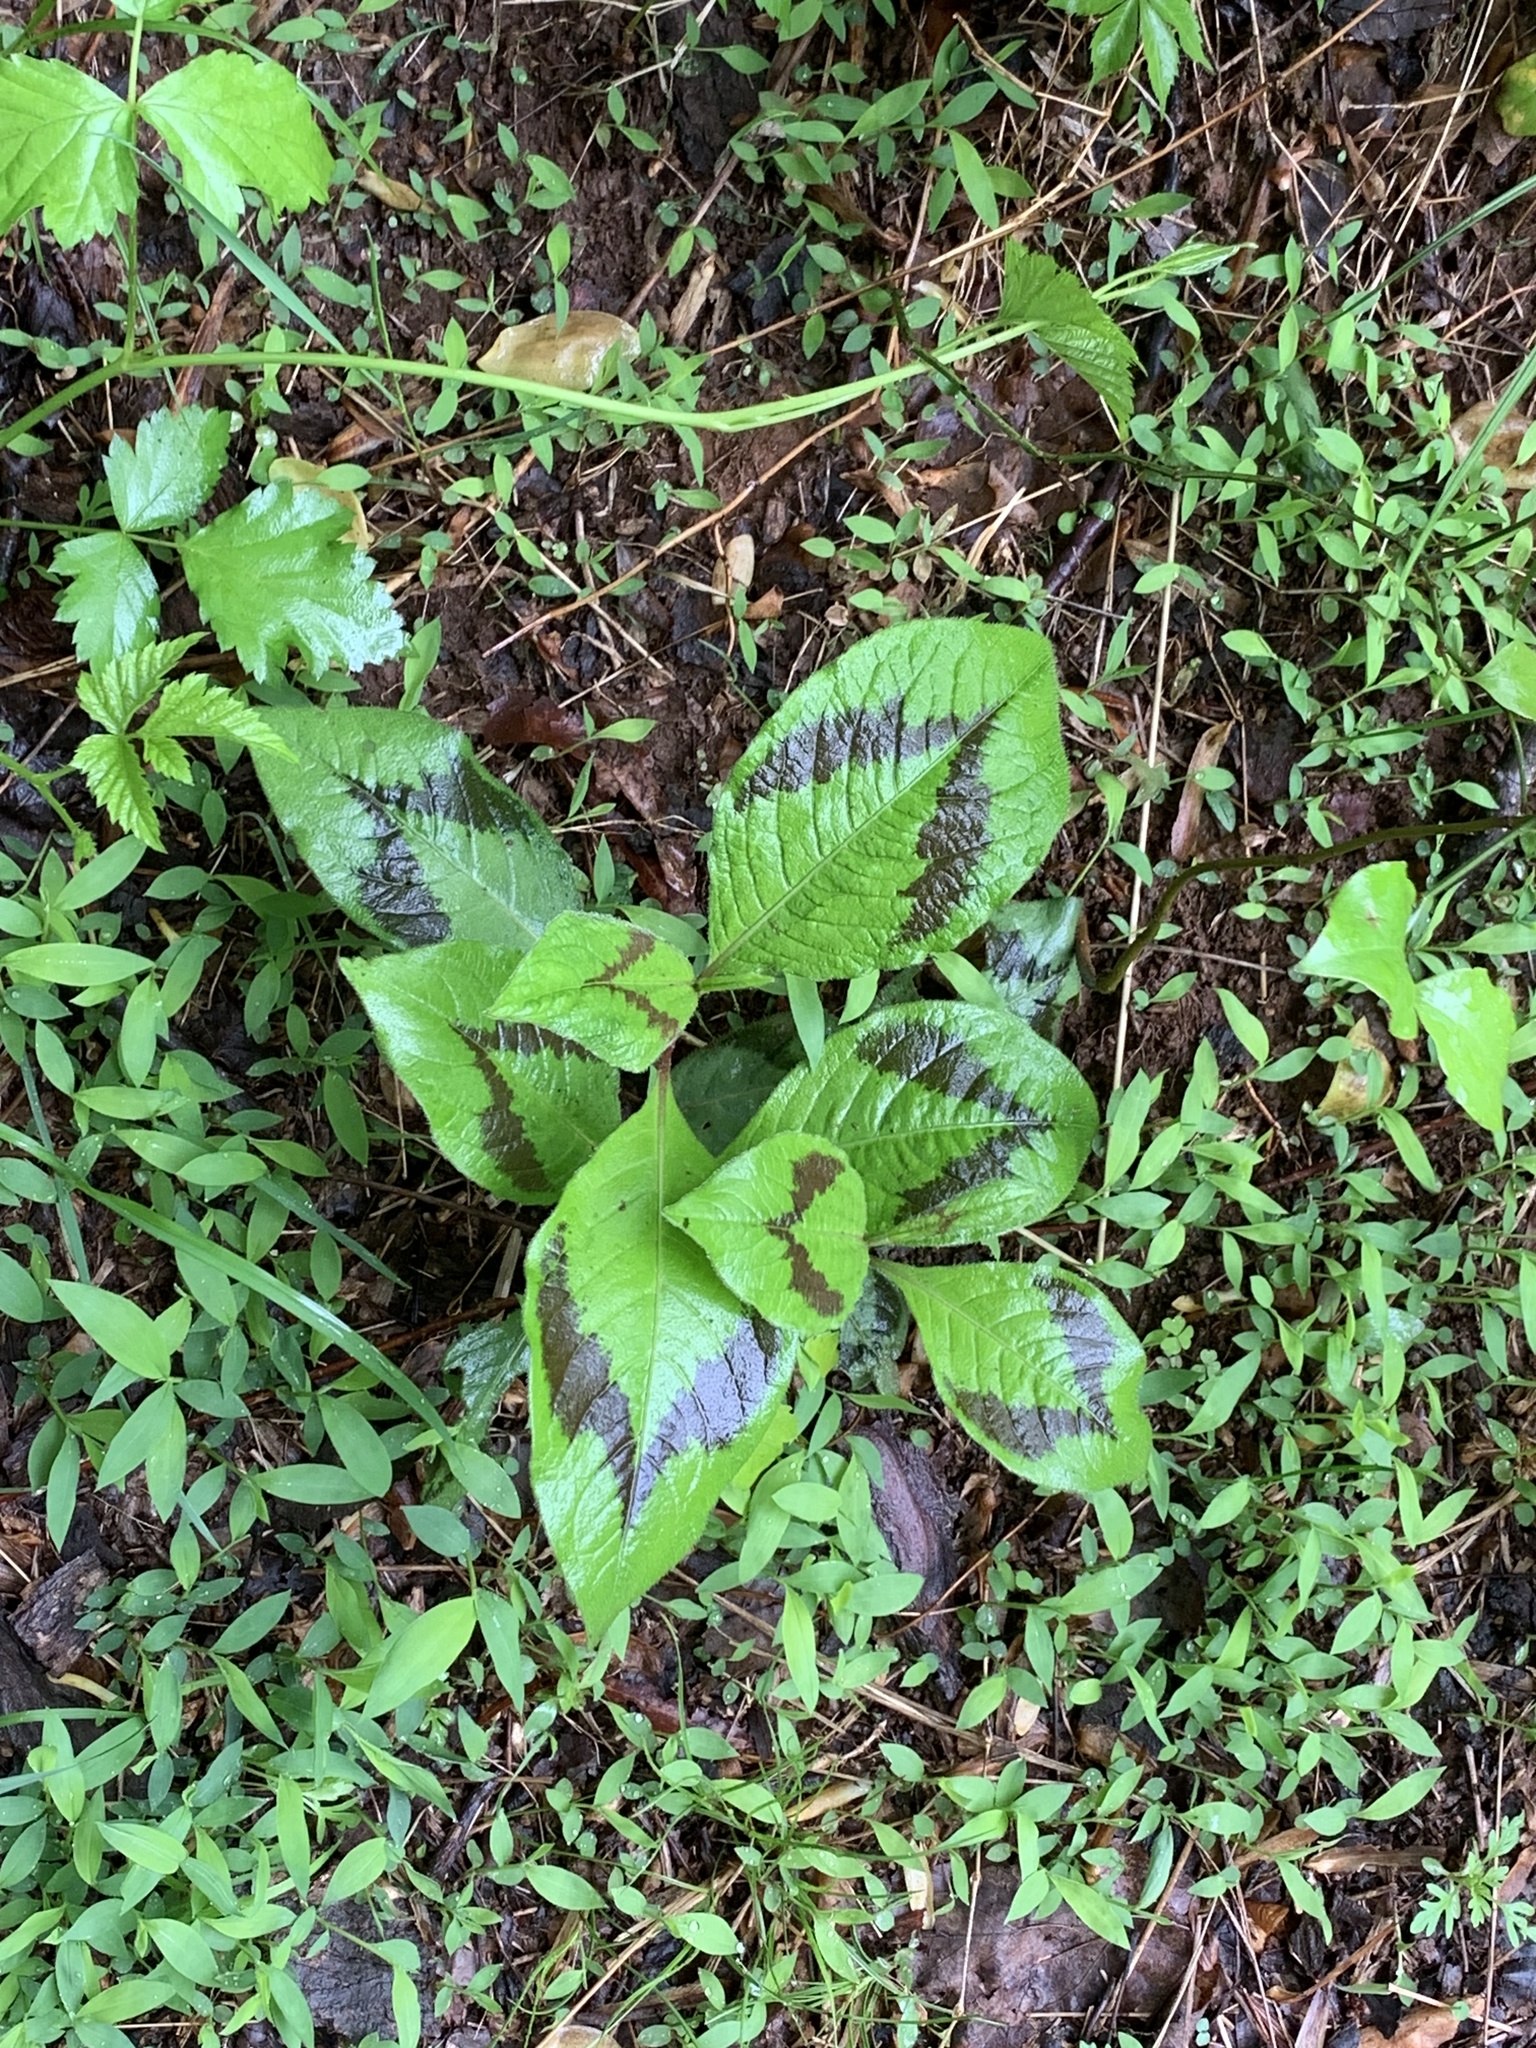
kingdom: Plantae
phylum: Tracheophyta
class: Magnoliopsida
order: Caryophyllales
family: Polygonaceae
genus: Persicaria
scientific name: Persicaria filiformis
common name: Asian jumpseed
